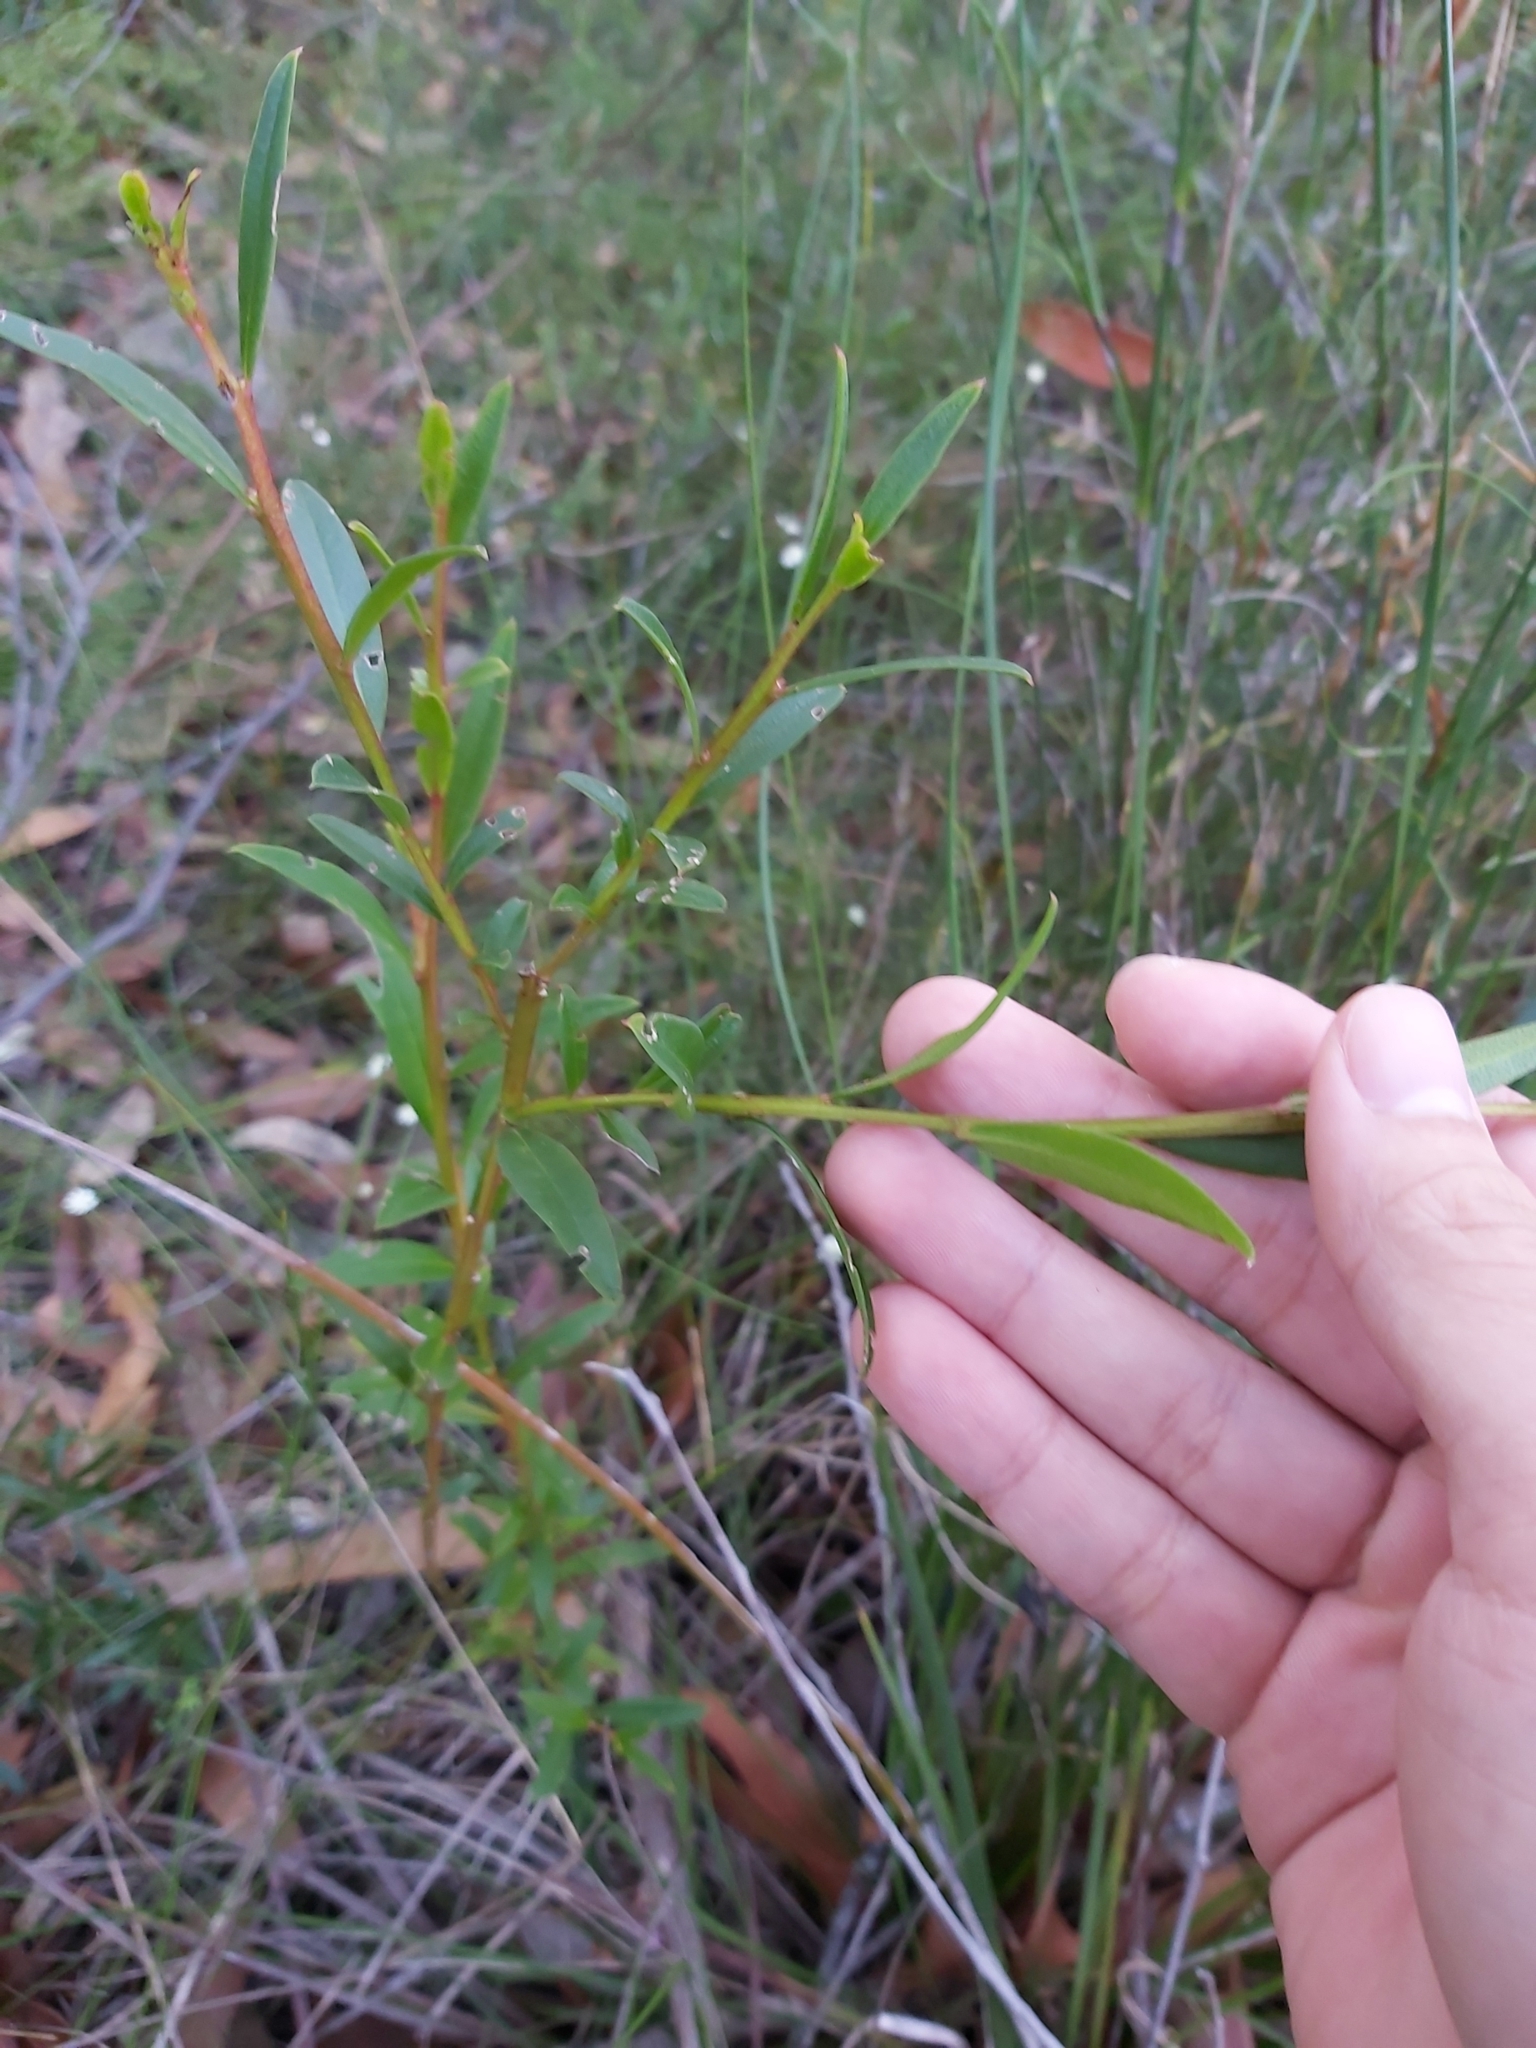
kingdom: Plantae
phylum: Tracheophyta
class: Magnoliopsida
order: Sapindales
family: Rutaceae
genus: Crowea
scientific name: Crowea saligna
